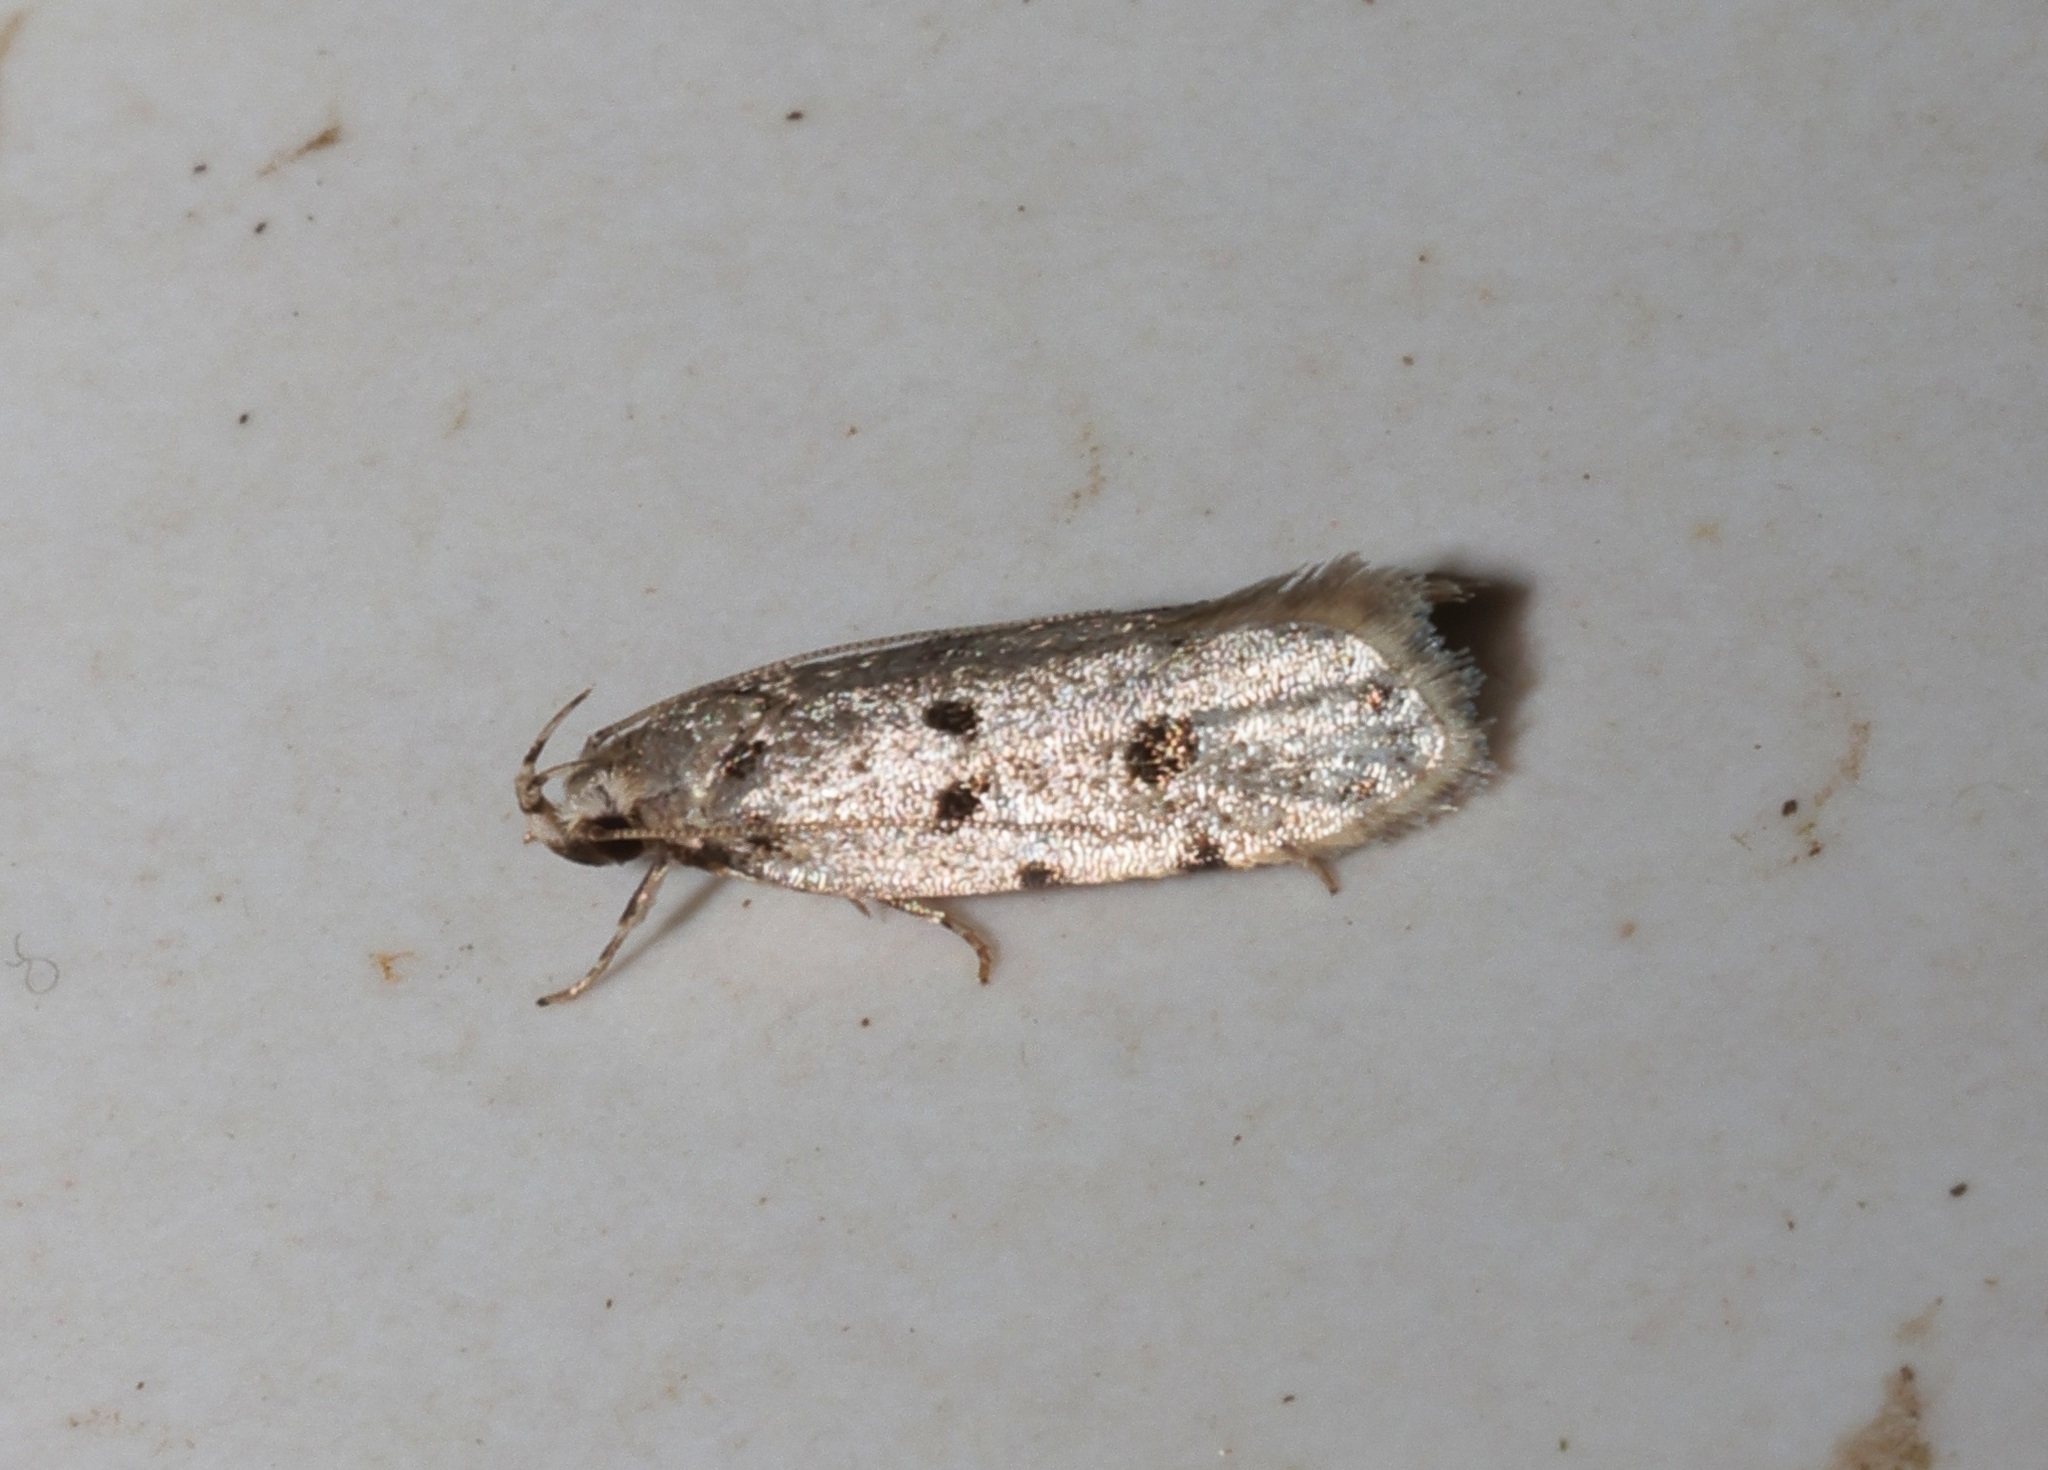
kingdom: Animalia
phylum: Arthropoda
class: Insecta
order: Lepidoptera
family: Autostichidae
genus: Autosticha
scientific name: Autosticha calceata
